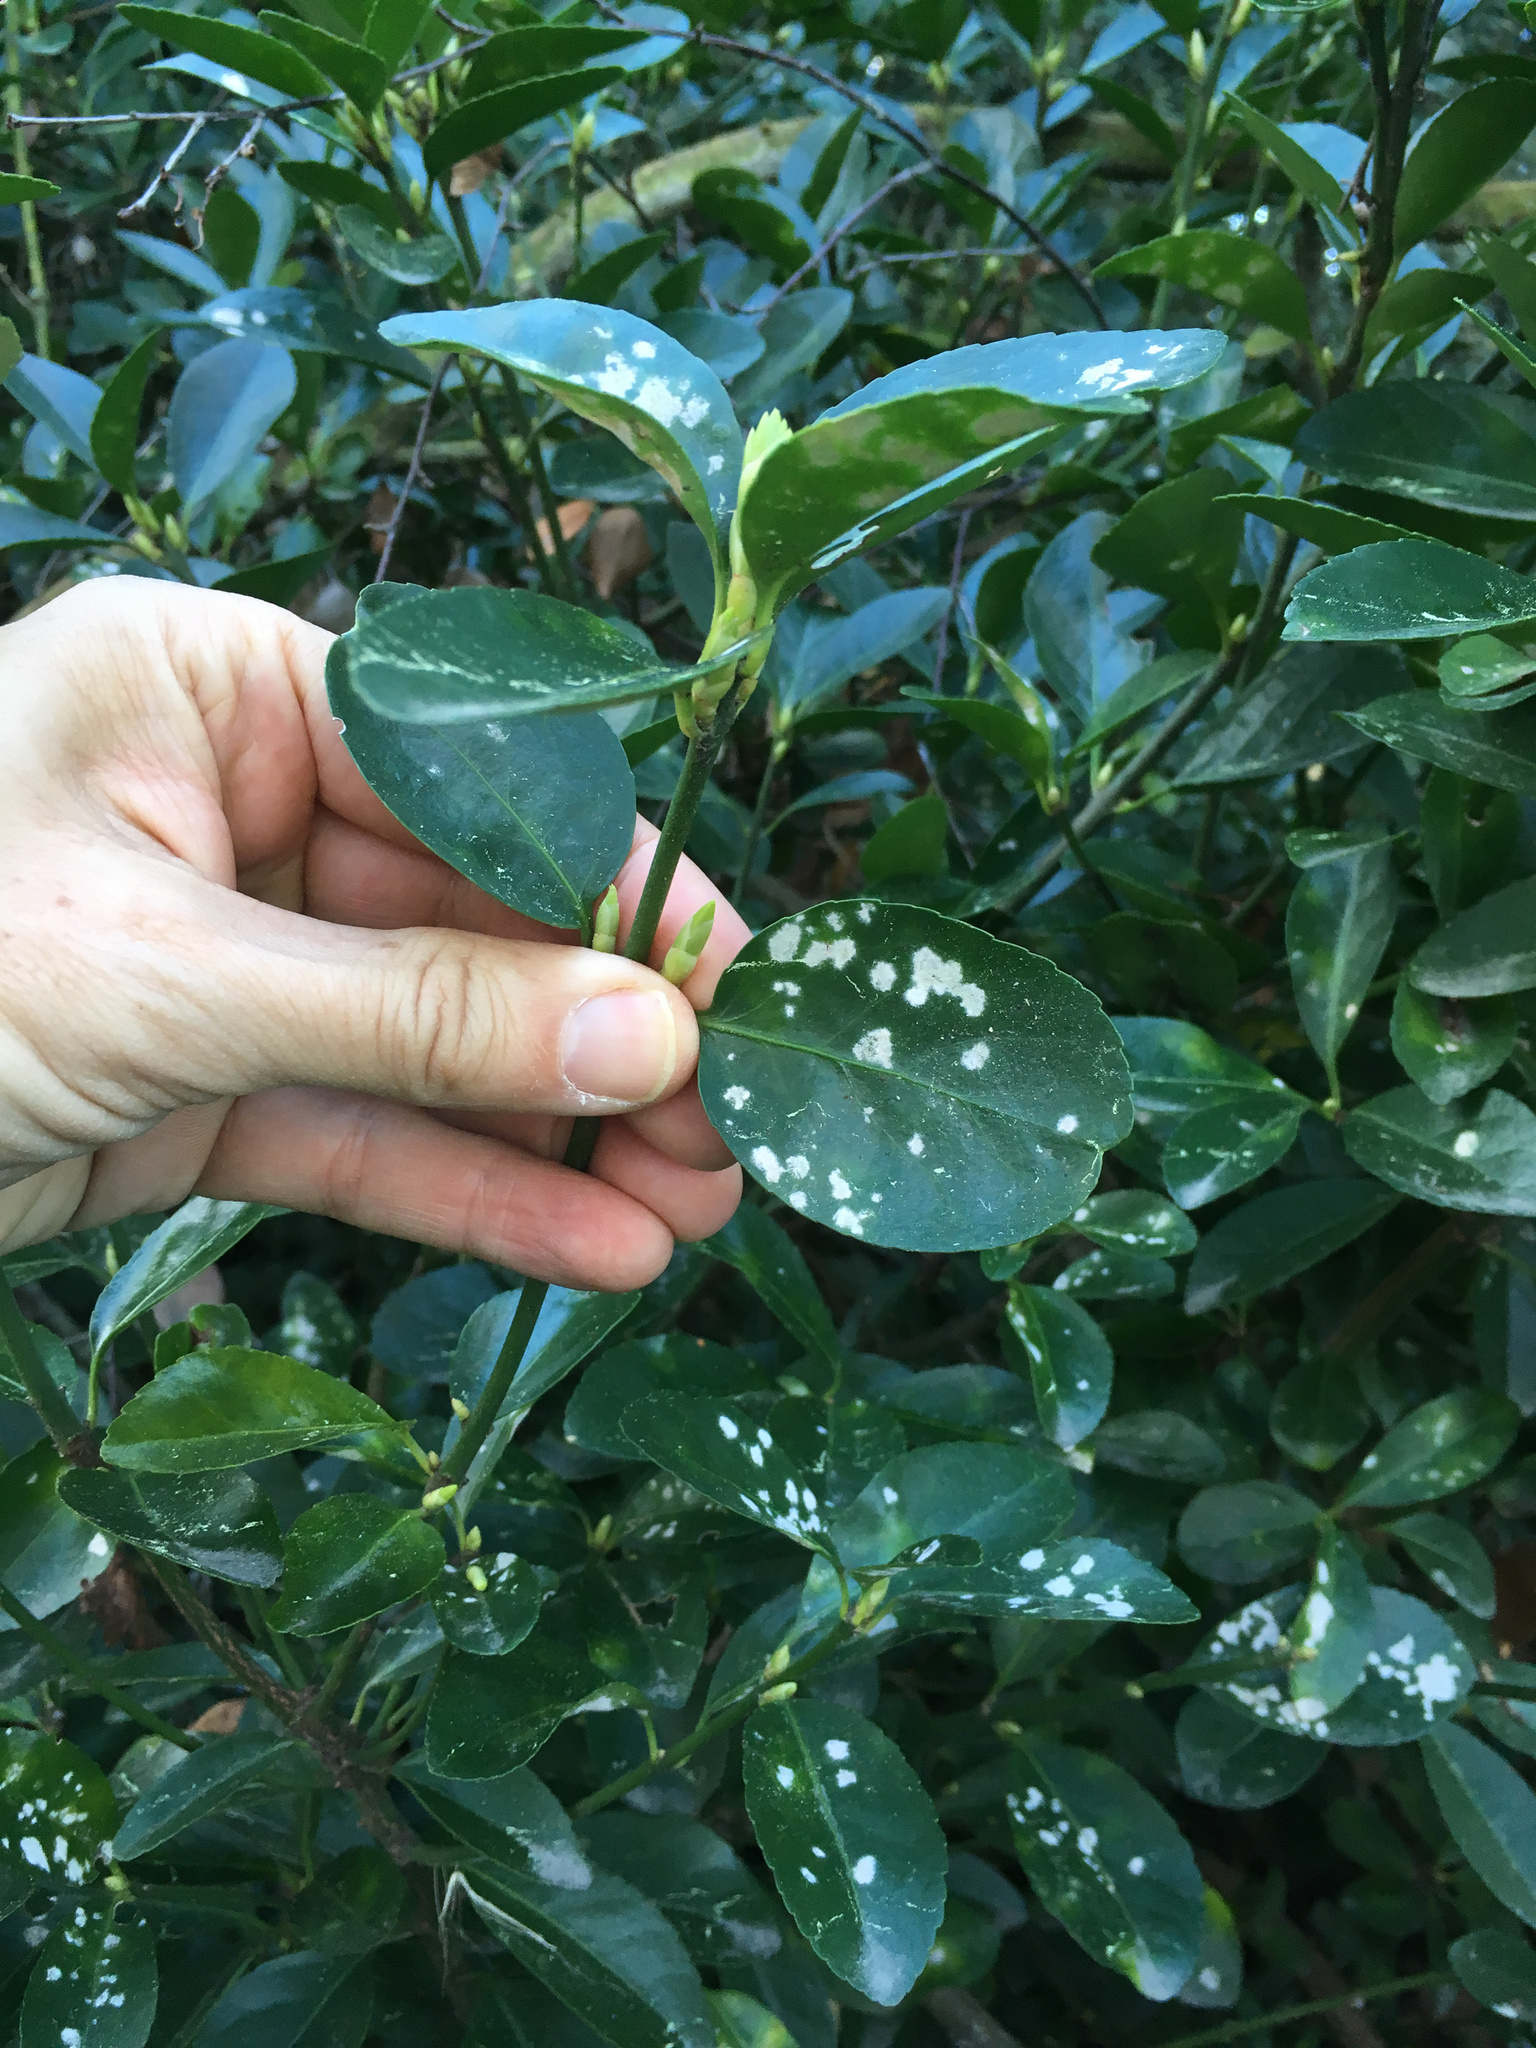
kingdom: Fungi
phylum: Ascomycota
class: Leotiomycetes
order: Helotiales
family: Erysiphaceae
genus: Erysiphe
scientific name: Erysiphe euonymicola
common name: Spindletree mildew
